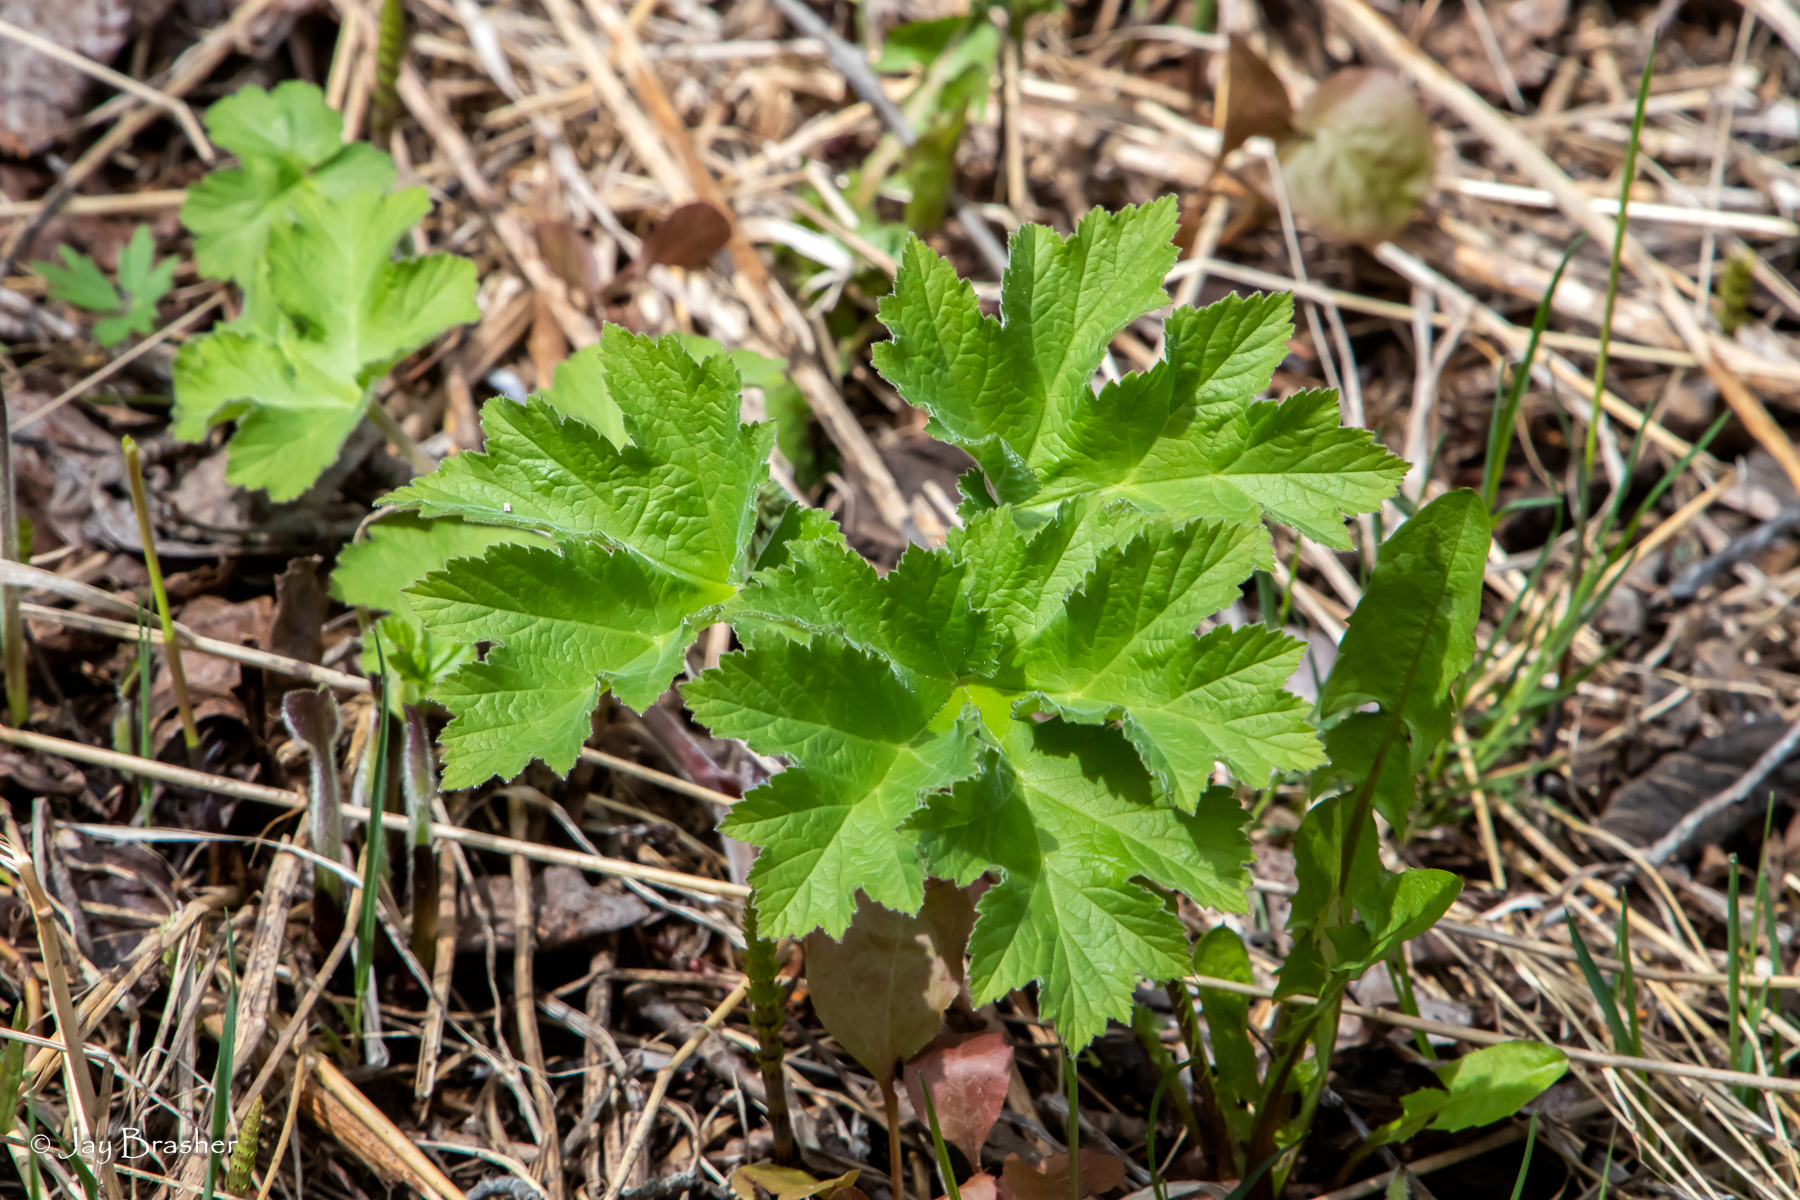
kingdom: Plantae
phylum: Tracheophyta
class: Magnoliopsida
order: Apiales
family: Apiaceae
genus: Heracleum
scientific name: Heracleum maximum
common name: American cow parsnip
